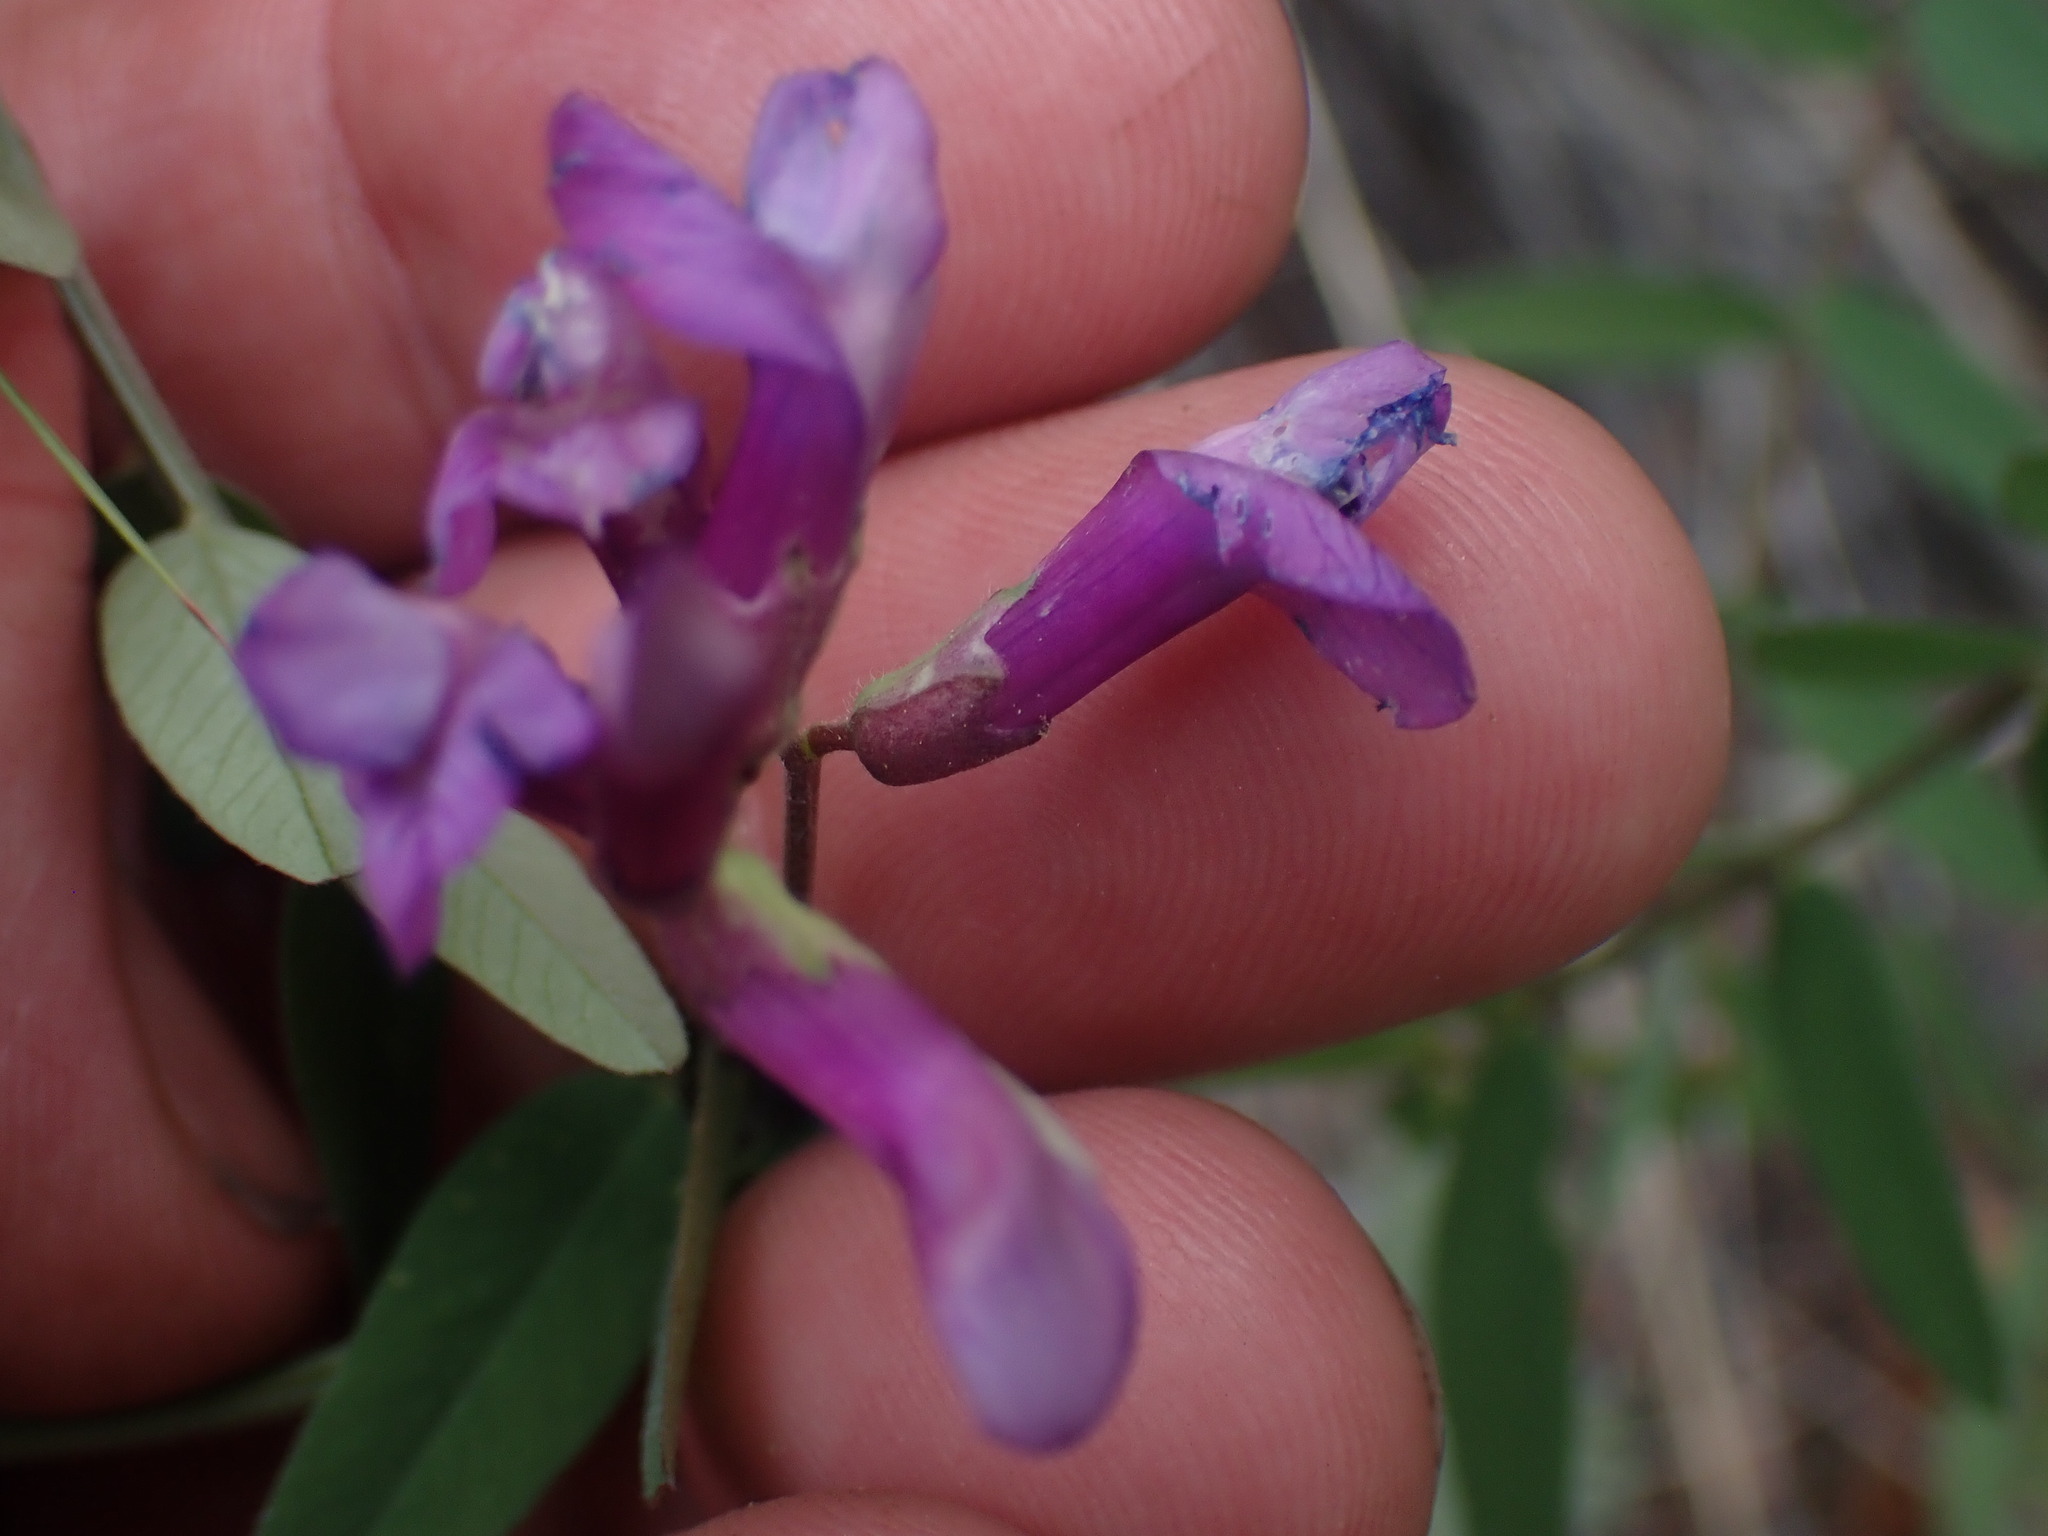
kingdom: Plantae
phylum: Tracheophyta
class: Magnoliopsida
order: Fabales
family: Fabaceae
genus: Vicia
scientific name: Vicia americana
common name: American vetch
